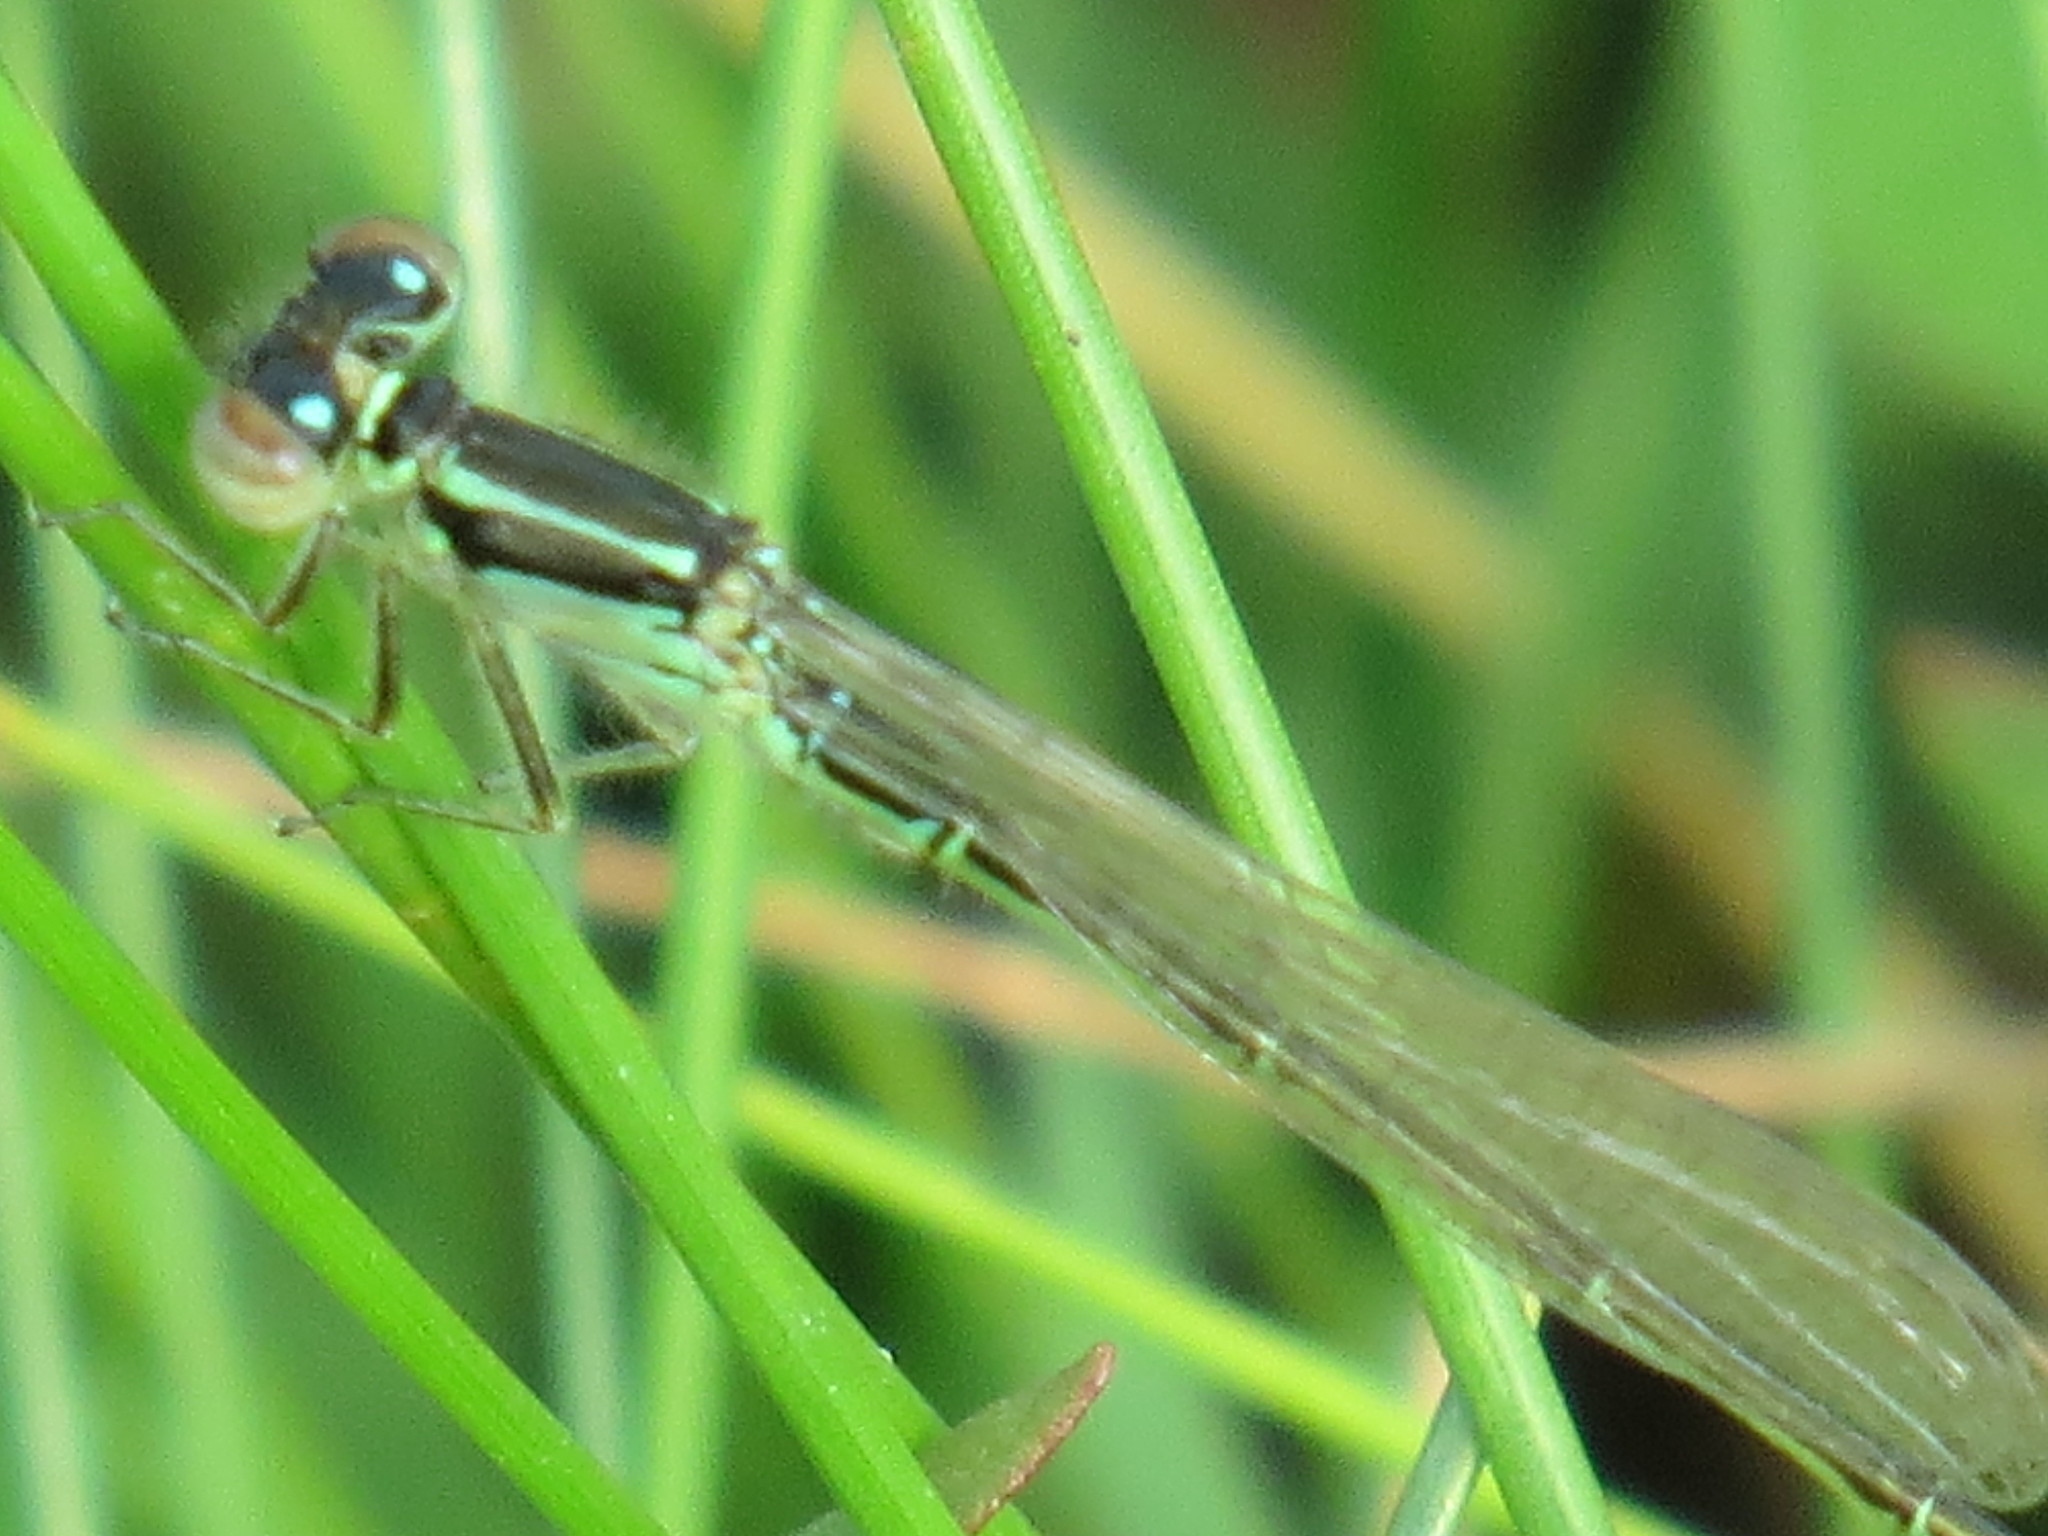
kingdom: Animalia
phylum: Arthropoda
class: Insecta
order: Odonata
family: Coenagrionidae
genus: Ischnura
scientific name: Ischnura verticalis
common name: Eastern forktail
